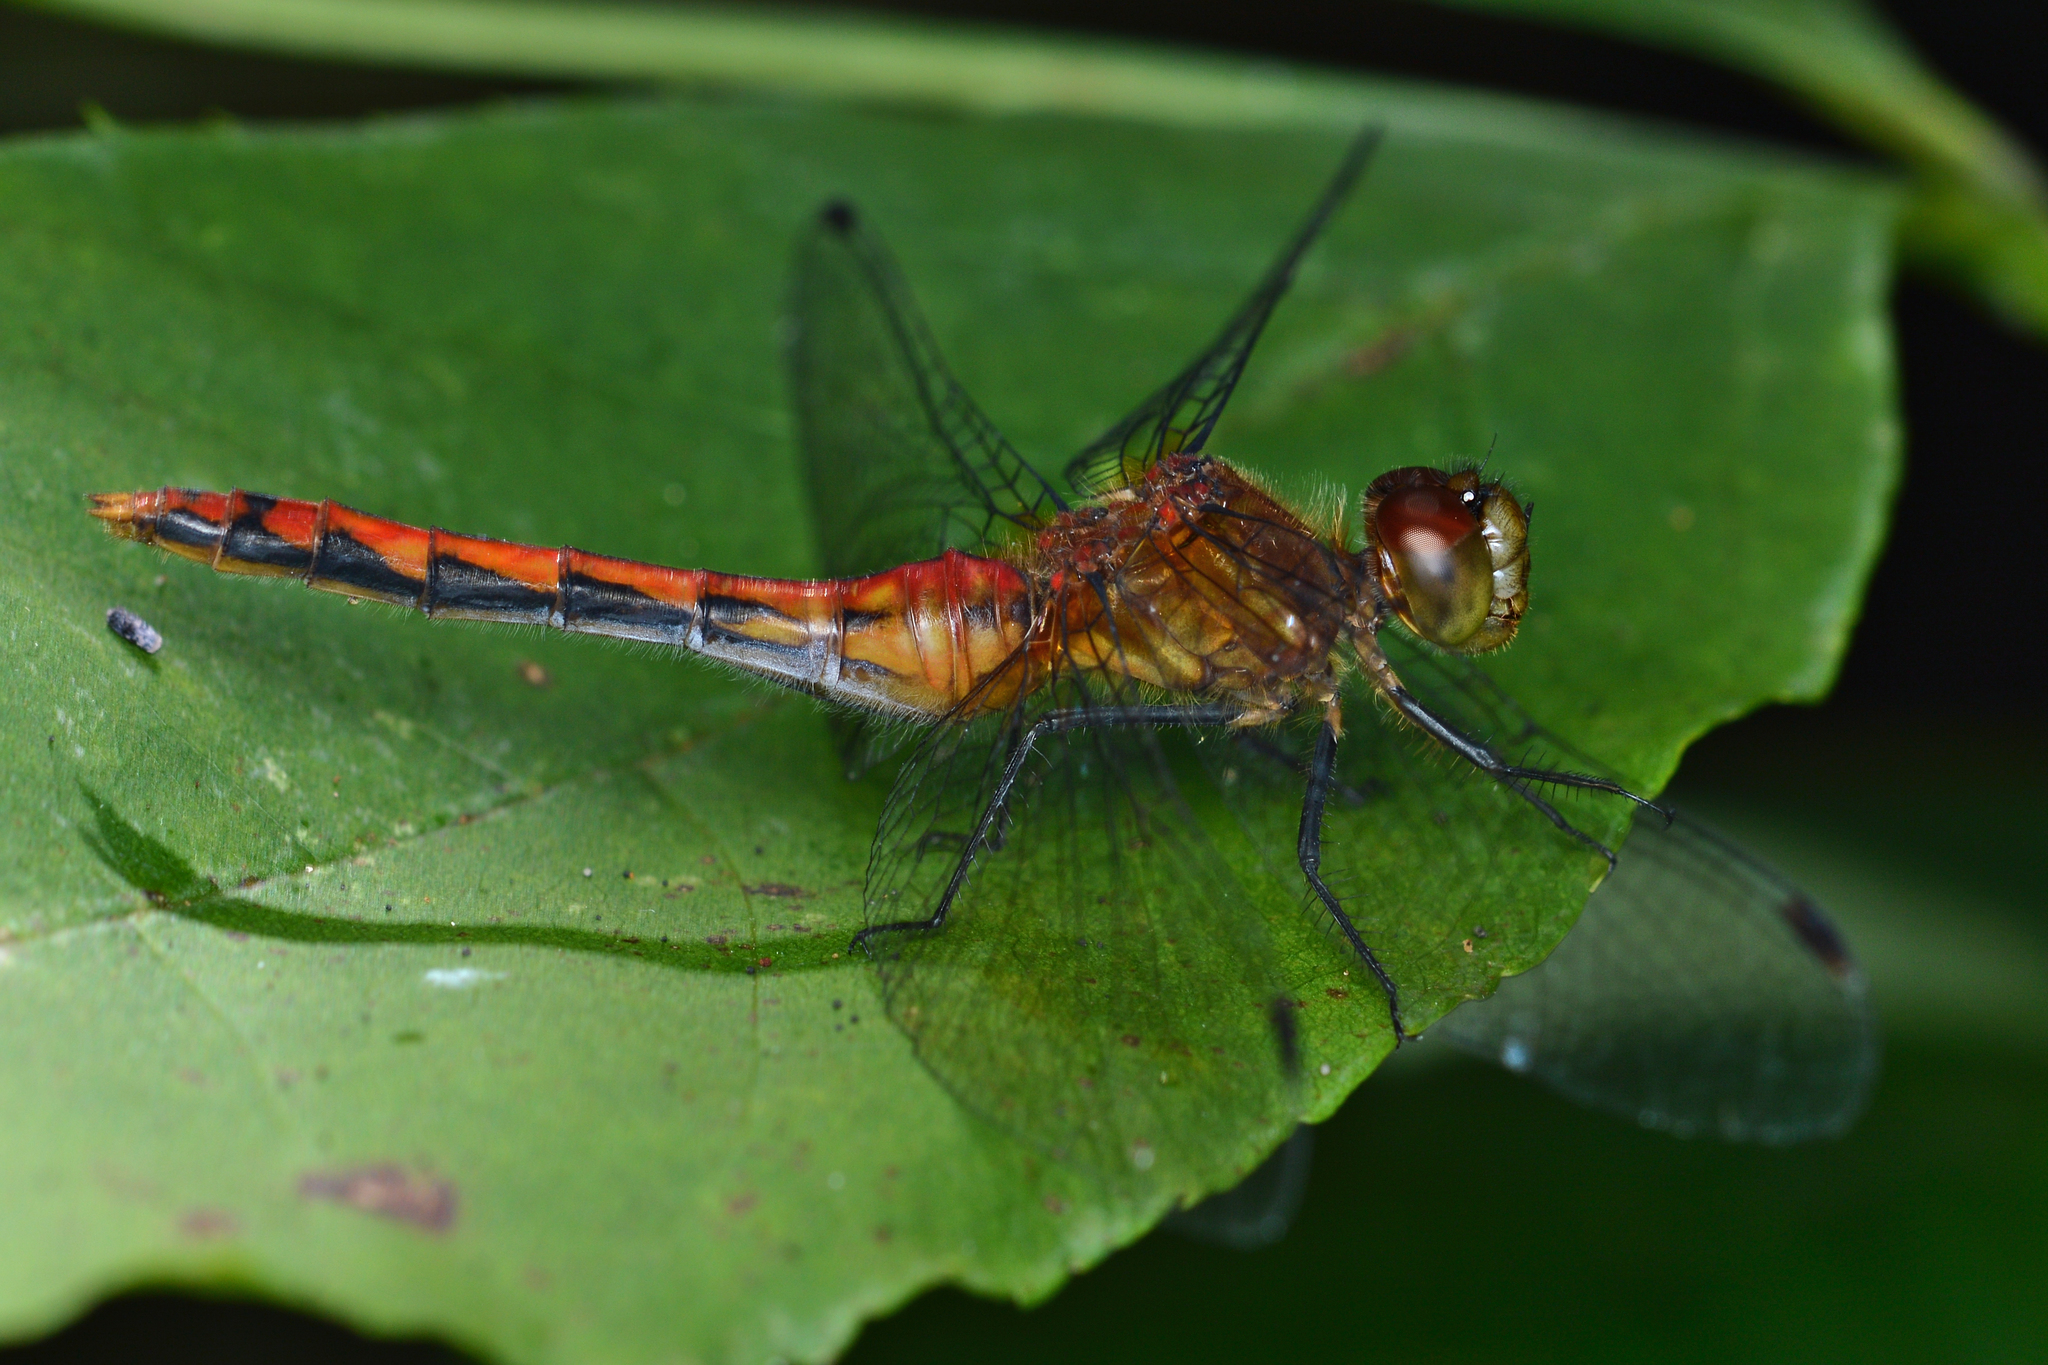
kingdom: Animalia
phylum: Arthropoda
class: Insecta
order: Odonata
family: Libellulidae
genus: Sympetrum
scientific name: Sympetrum
